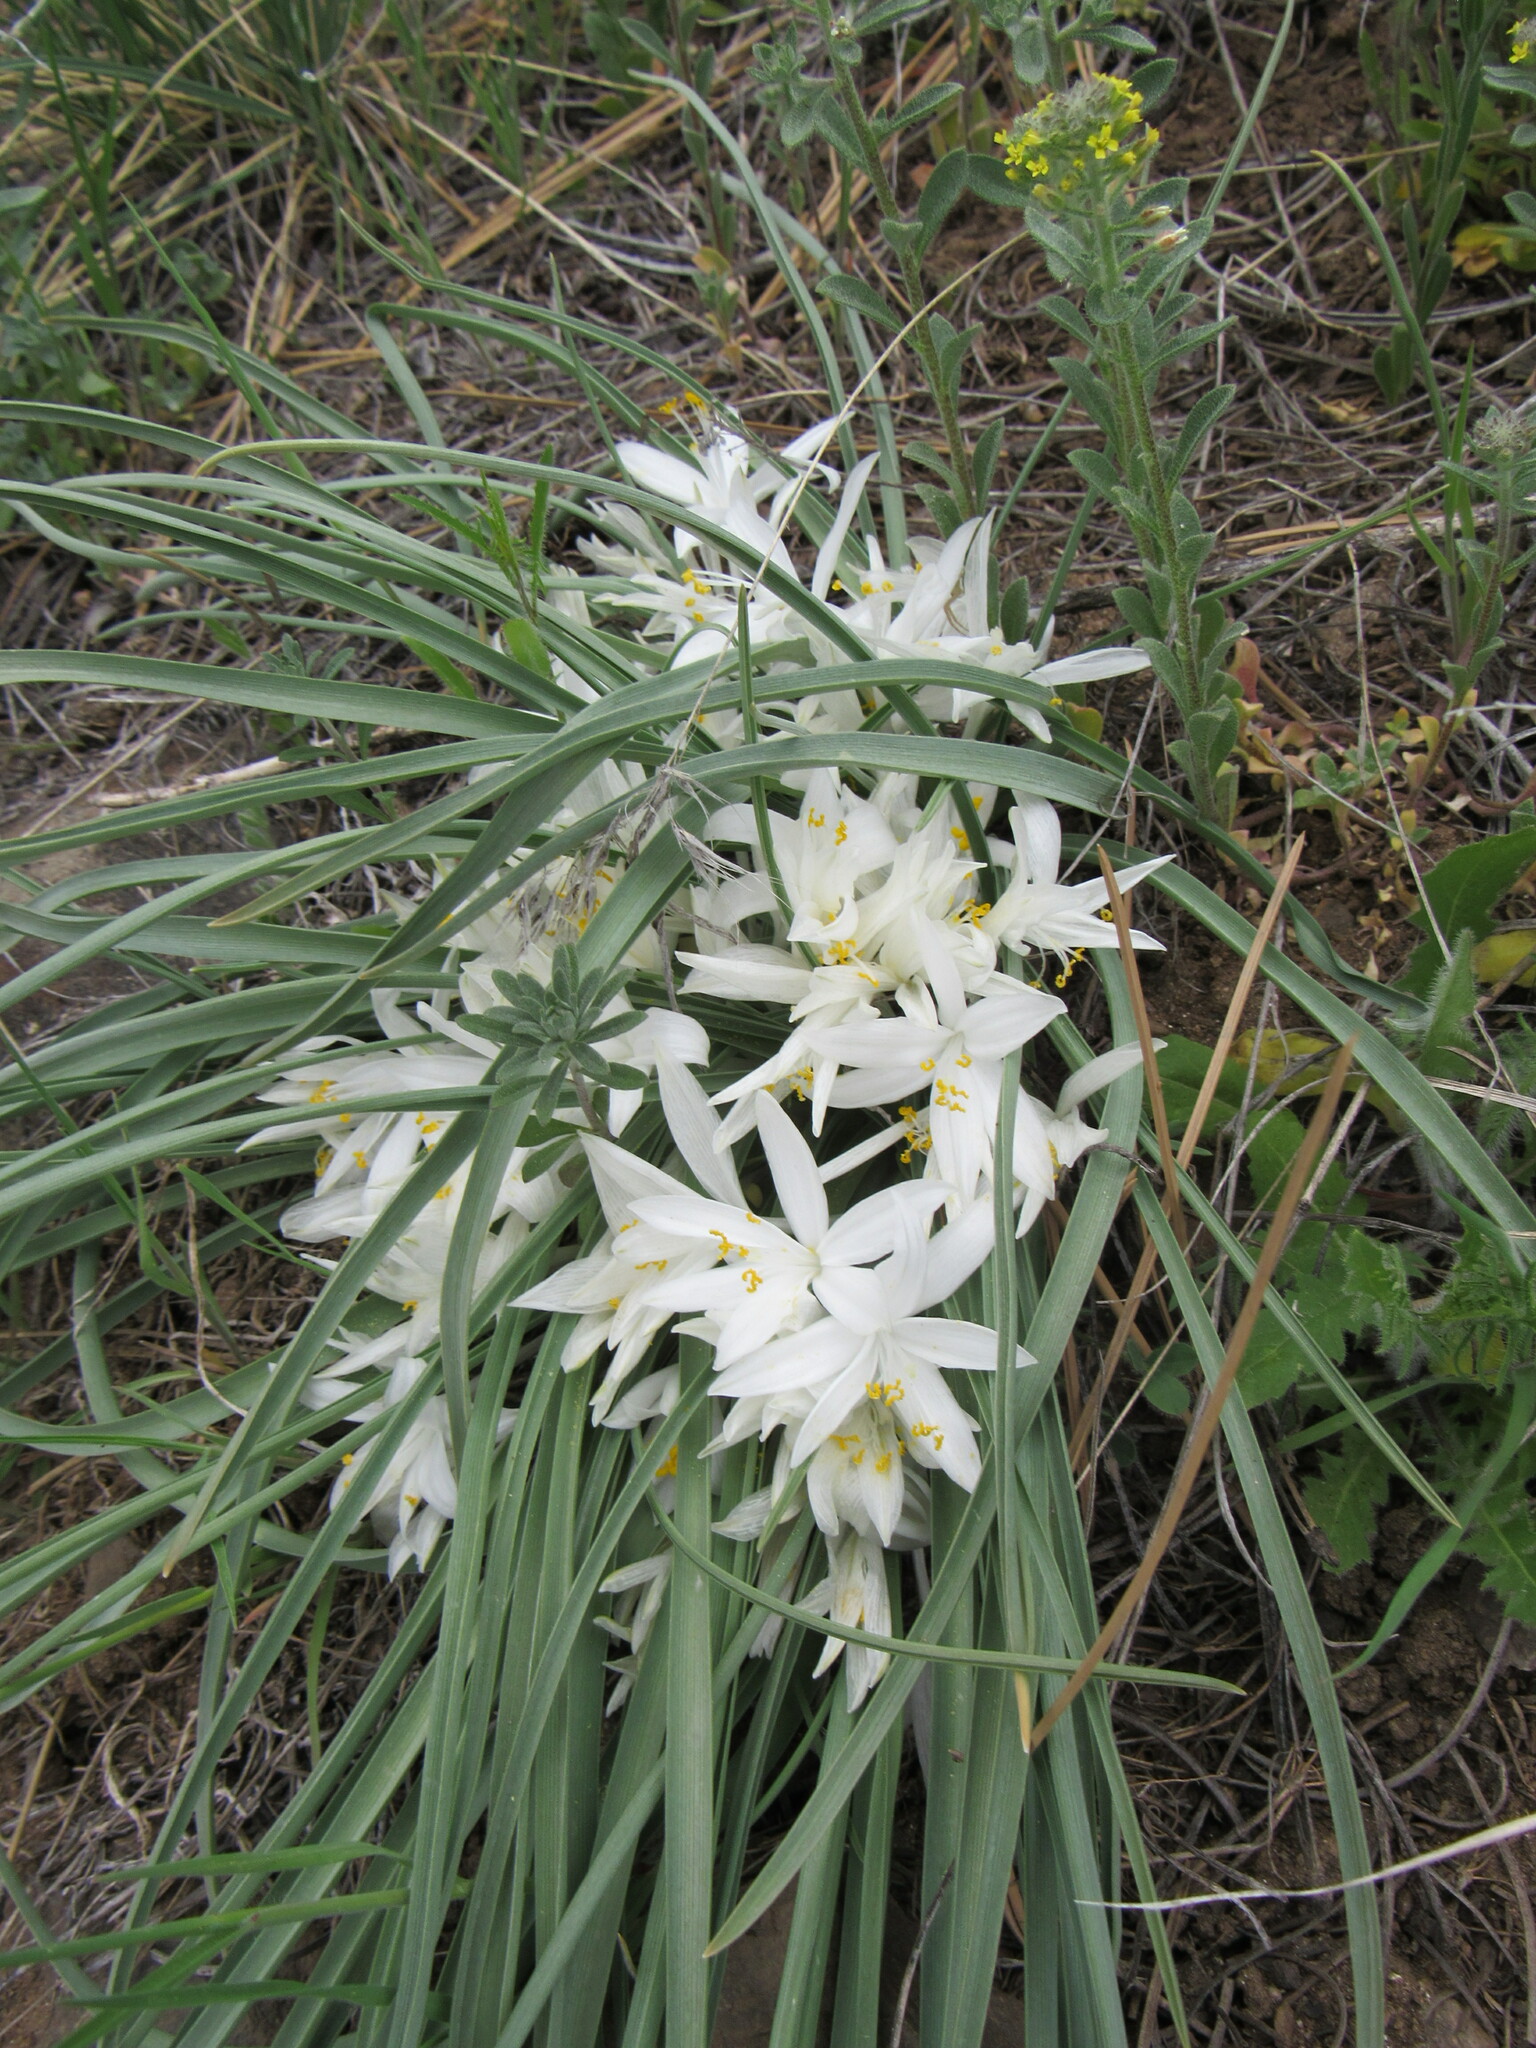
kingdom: Plantae
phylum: Tracheophyta
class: Liliopsida
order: Asparagales
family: Asparagaceae
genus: Leucocrinum
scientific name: Leucocrinum montanum
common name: Mountain-lily
